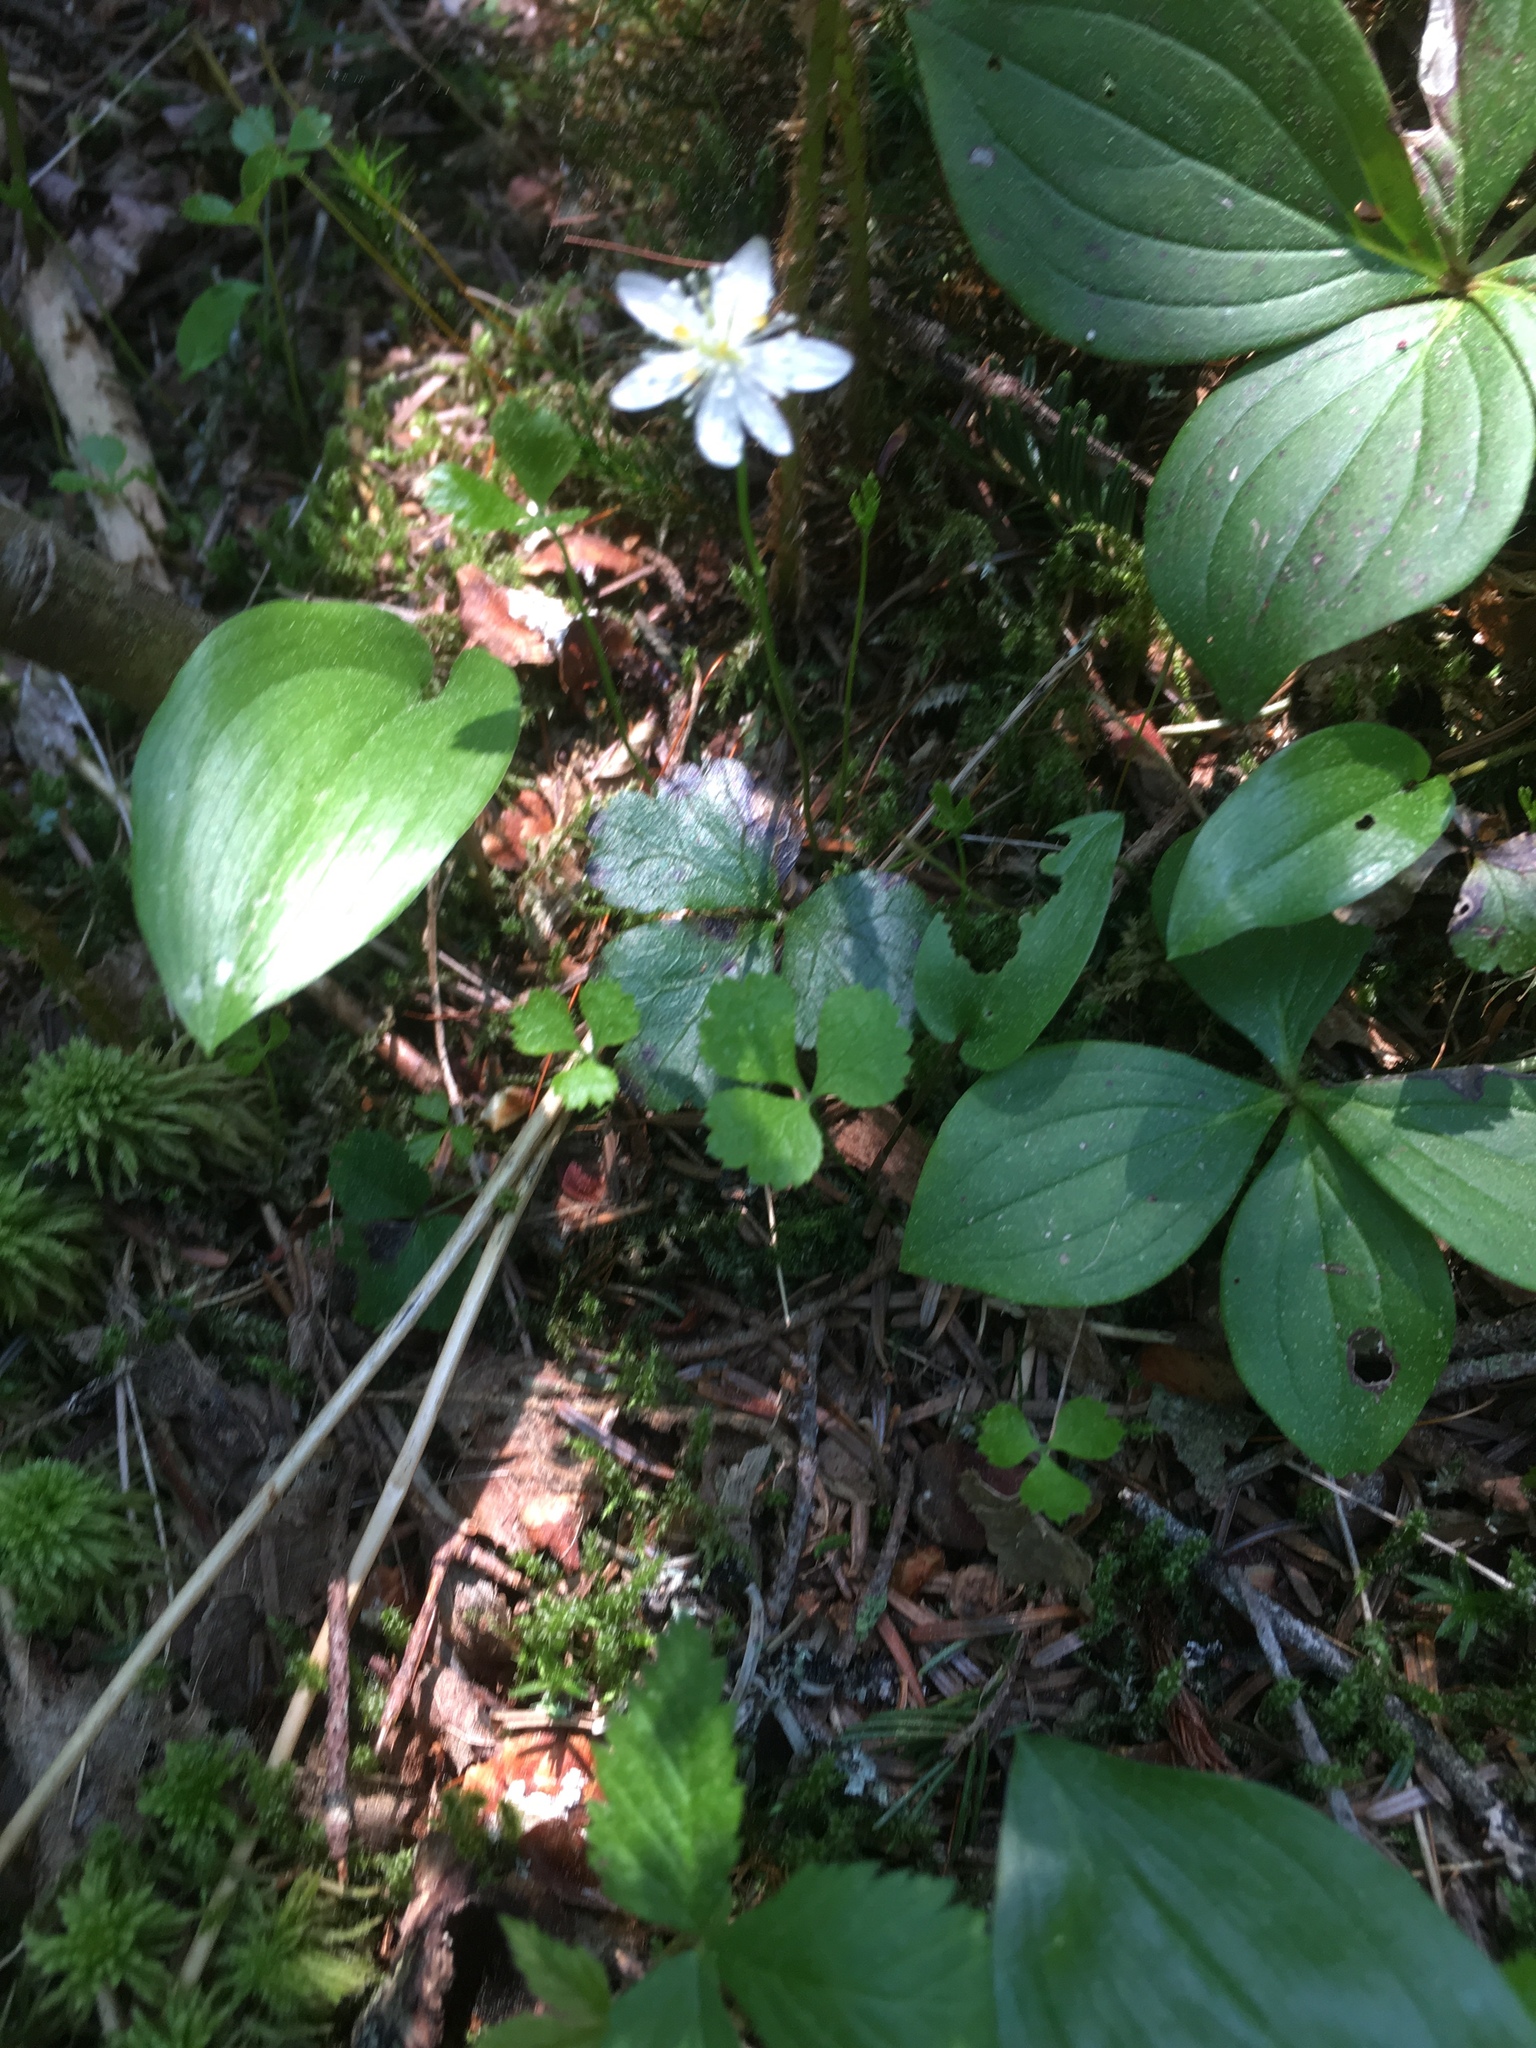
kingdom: Plantae
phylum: Tracheophyta
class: Magnoliopsida
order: Ranunculales
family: Ranunculaceae
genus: Coptis
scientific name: Coptis trifolia
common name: Canker-root
